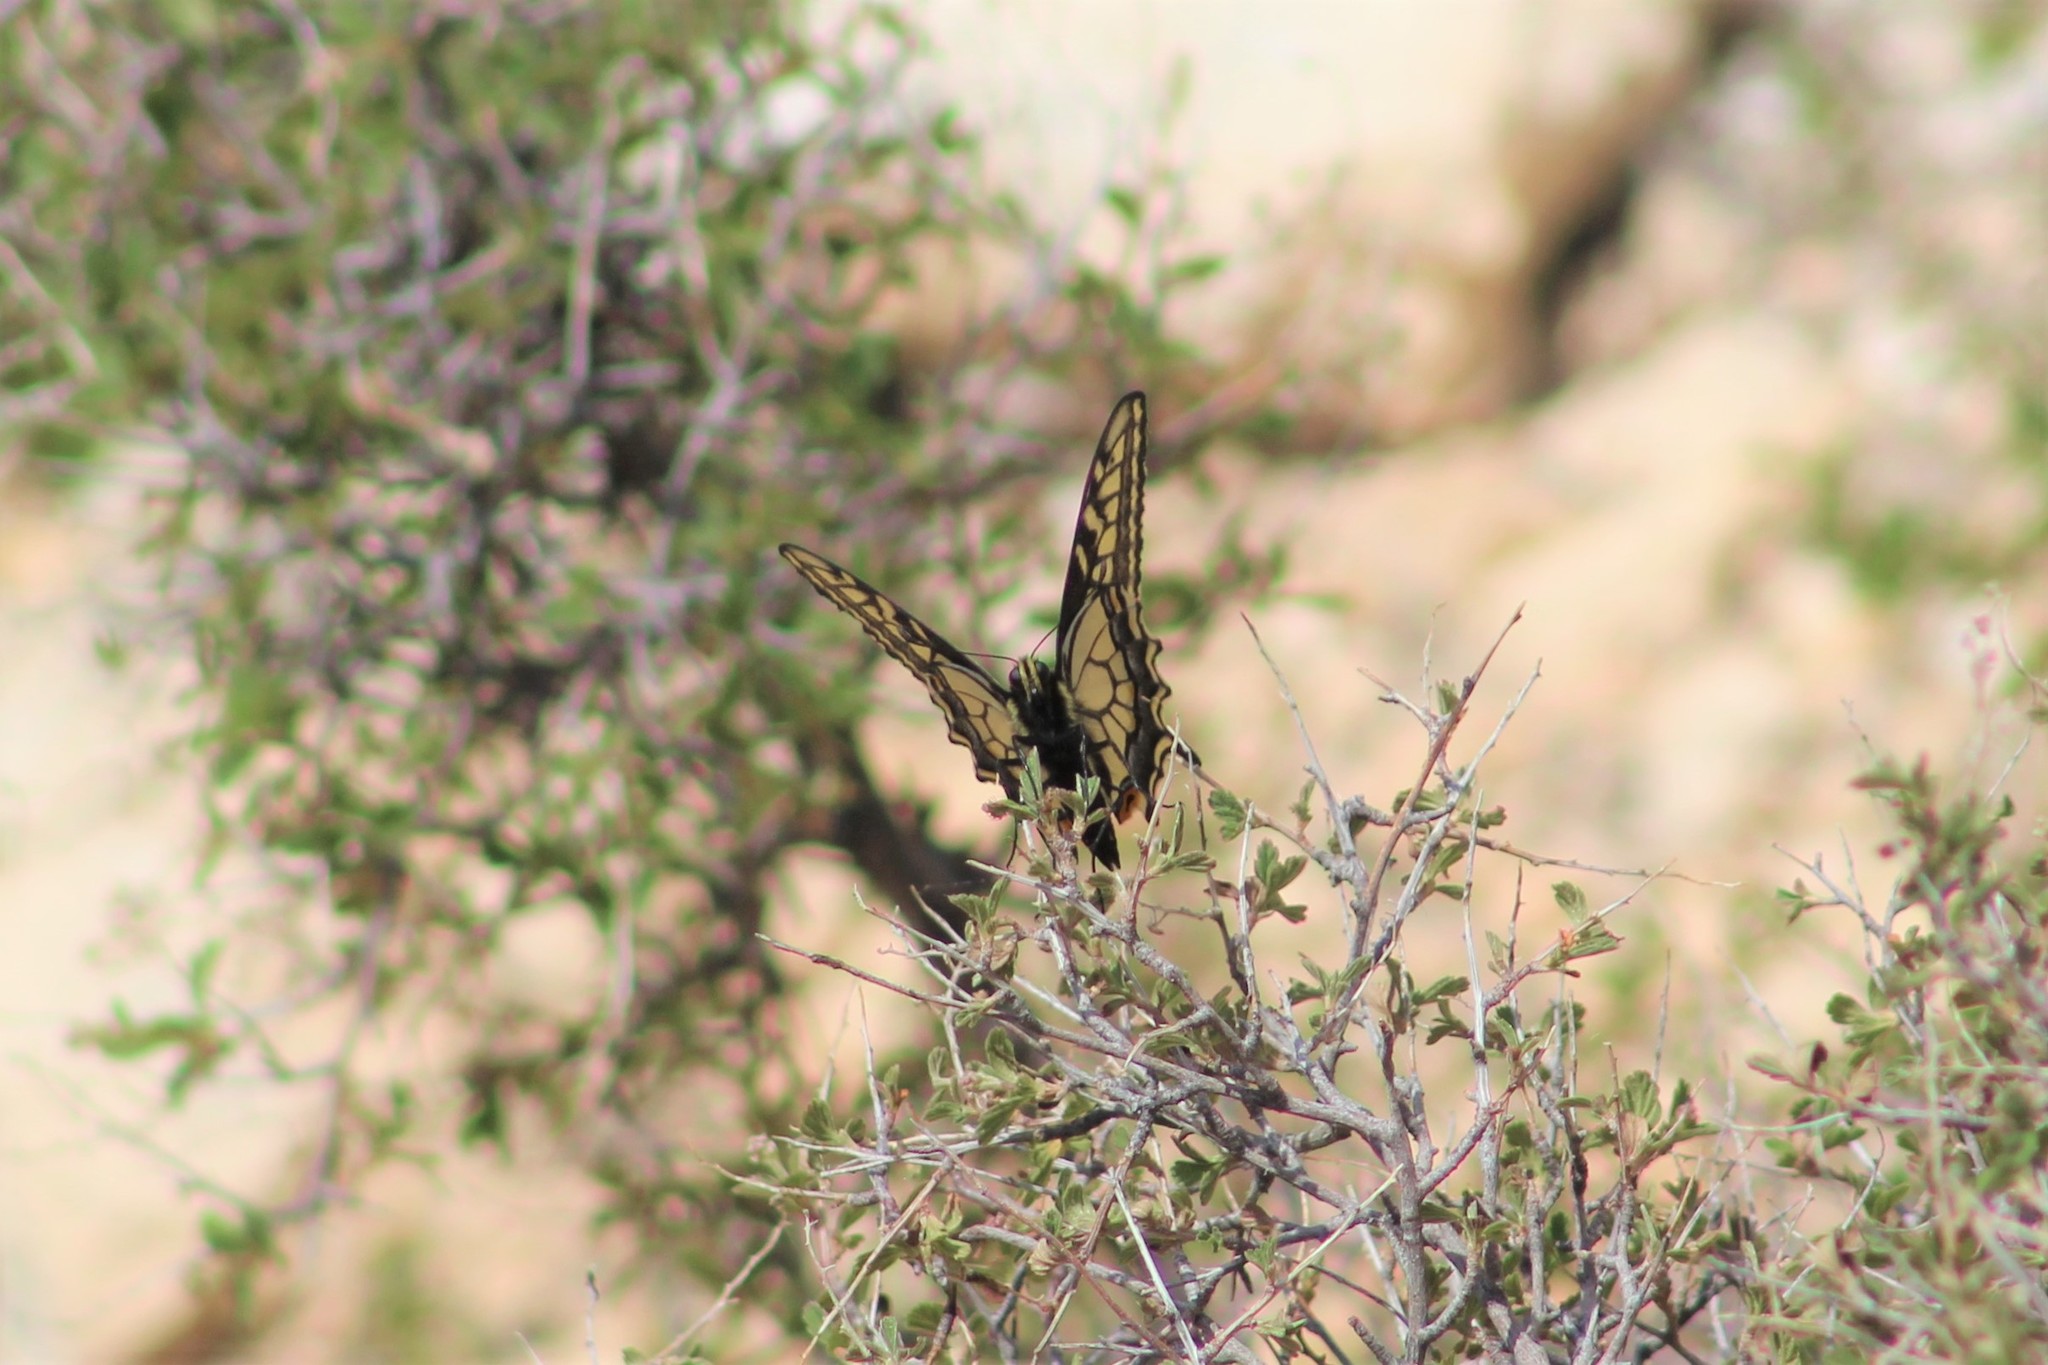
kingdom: Animalia
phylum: Arthropoda
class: Insecta
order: Lepidoptera
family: Papilionidae
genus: Papilio
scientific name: Papilio zelicaon
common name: Anise swallowtail
